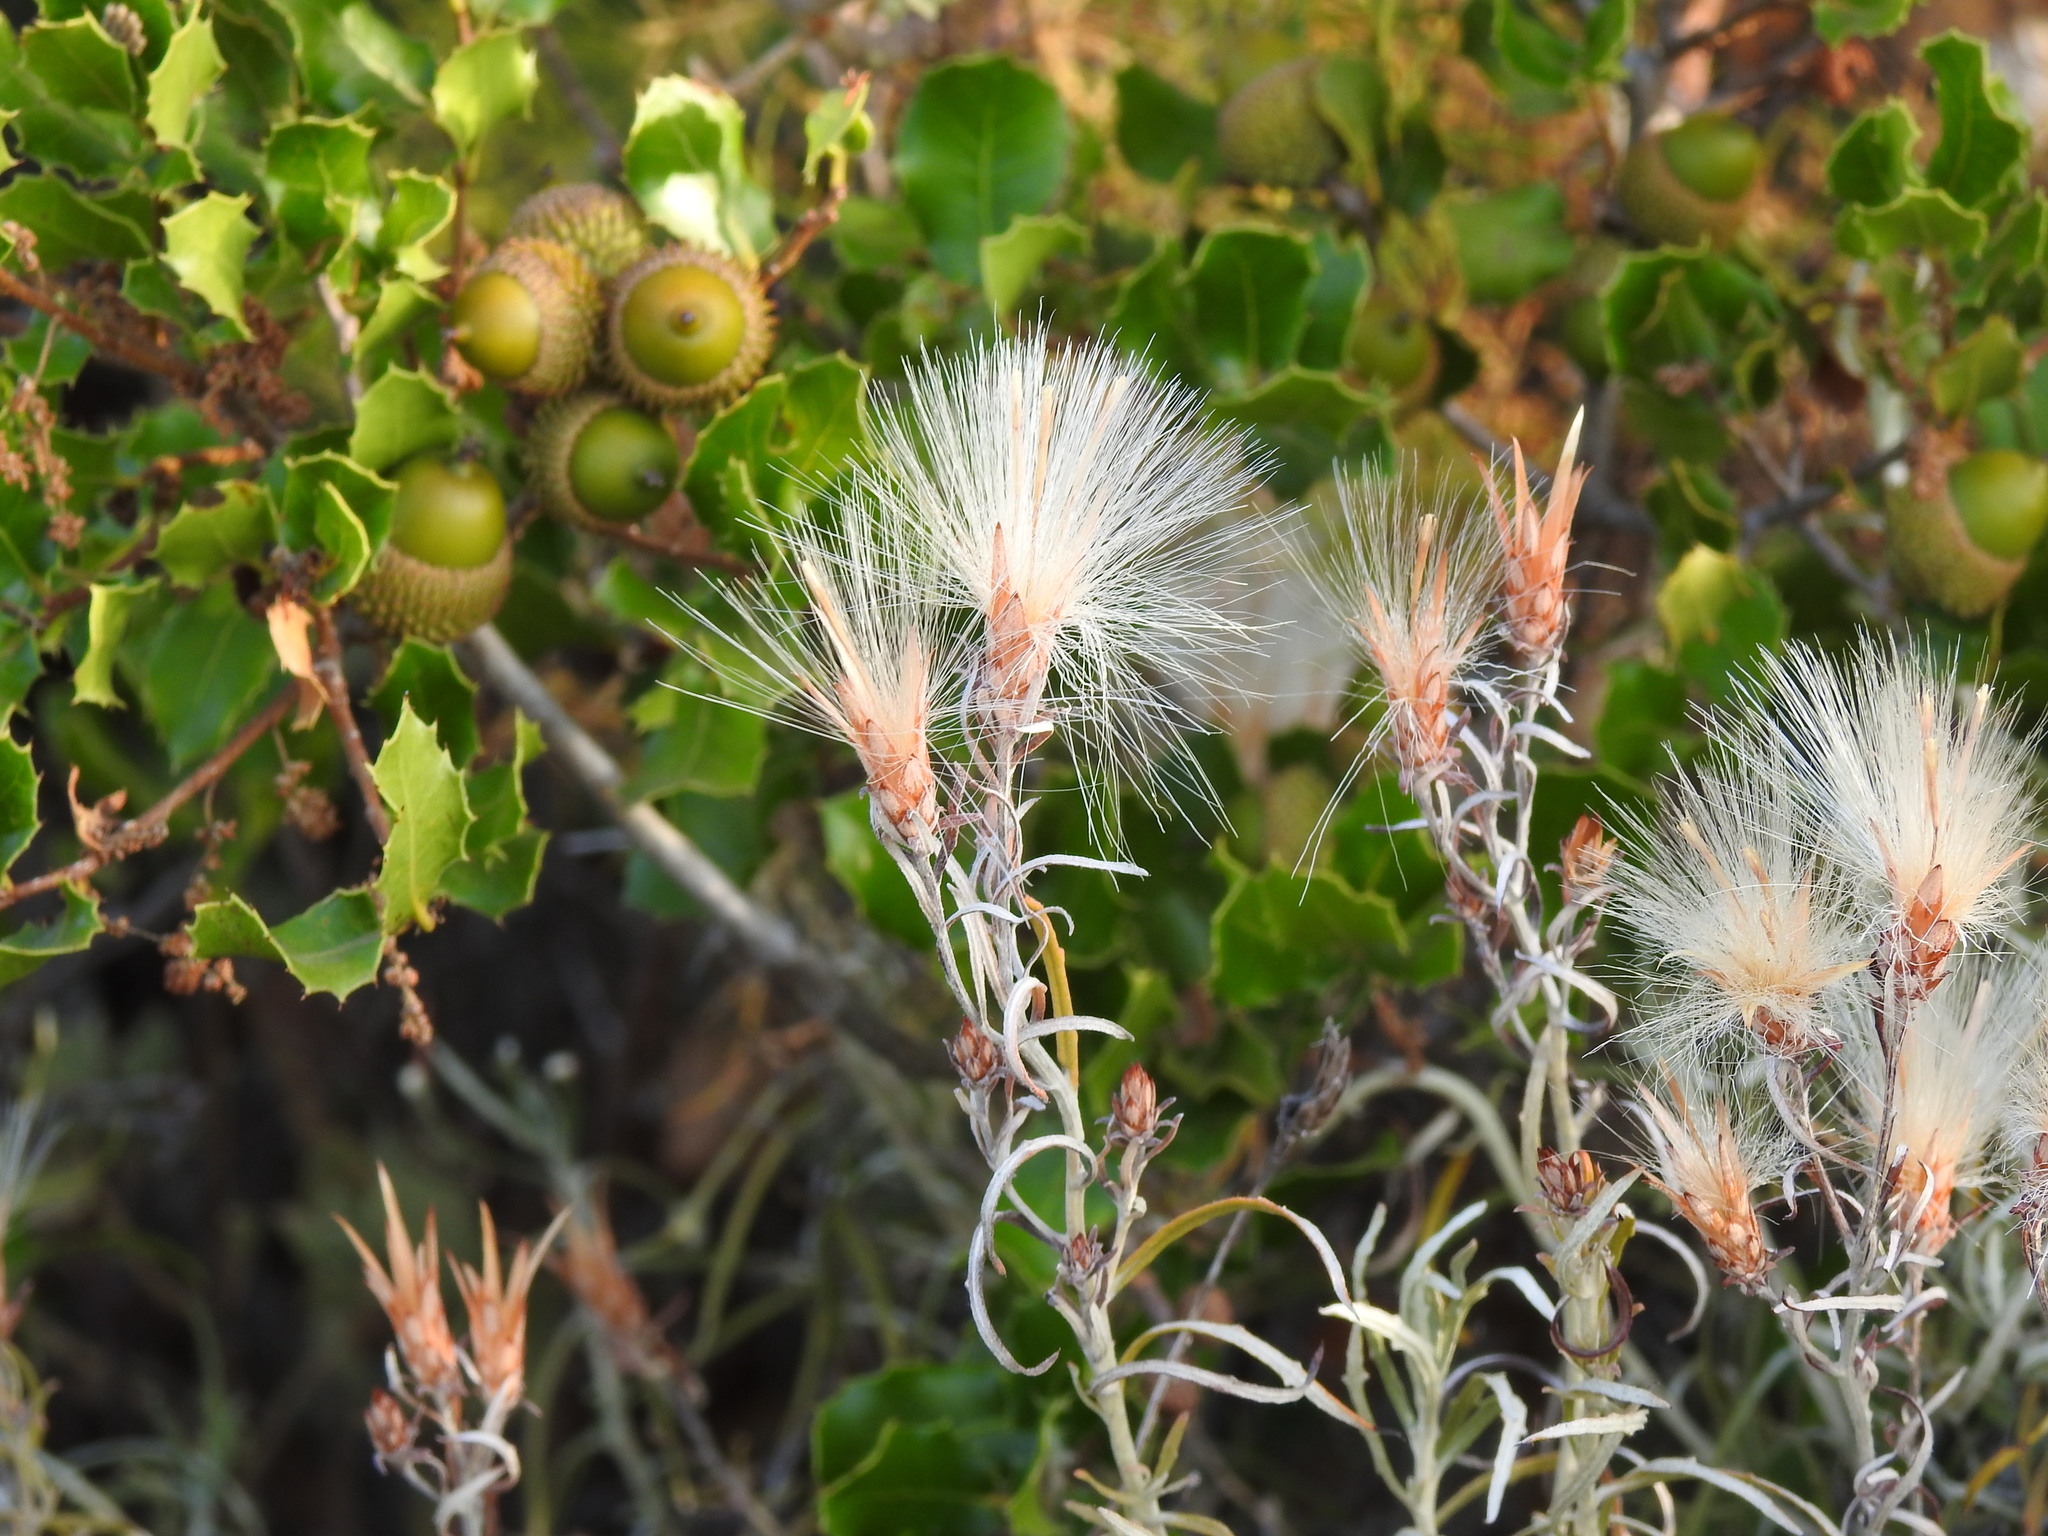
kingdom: Plantae
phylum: Tracheophyta
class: Magnoliopsida
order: Asterales
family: Asteraceae
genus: Staehelina
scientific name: Staehelina dubia
